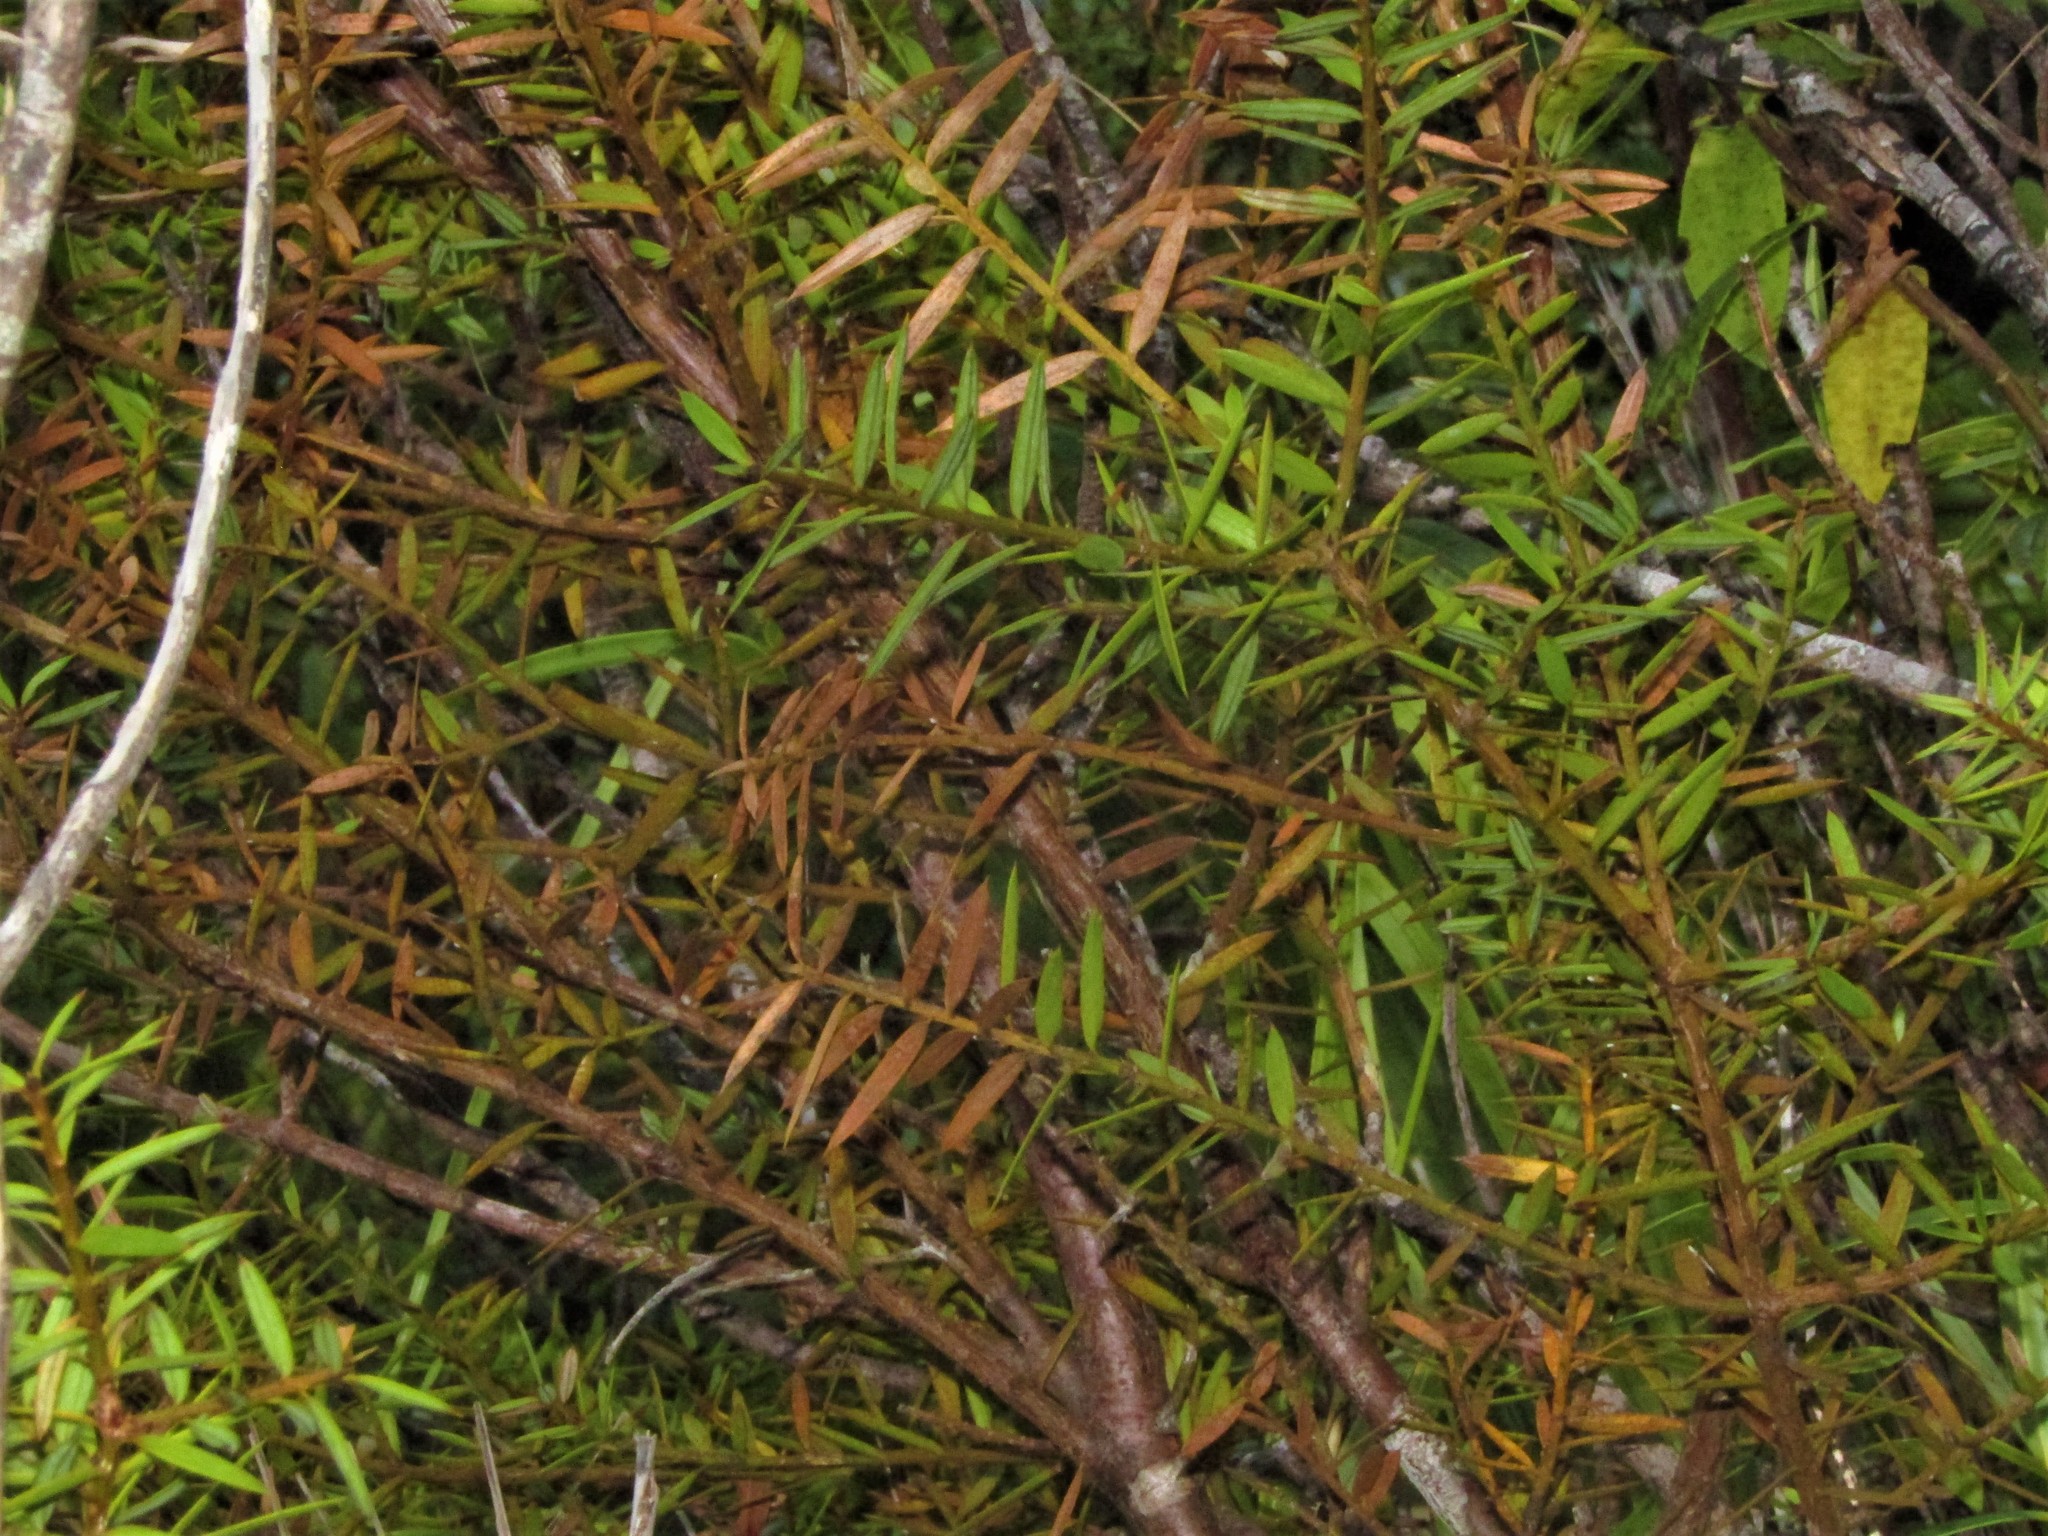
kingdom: Plantae
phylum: Tracheophyta
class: Pinopsida
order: Pinales
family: Podocarpaceae
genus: Podocarpus
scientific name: Podocarpus totara
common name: Totara
